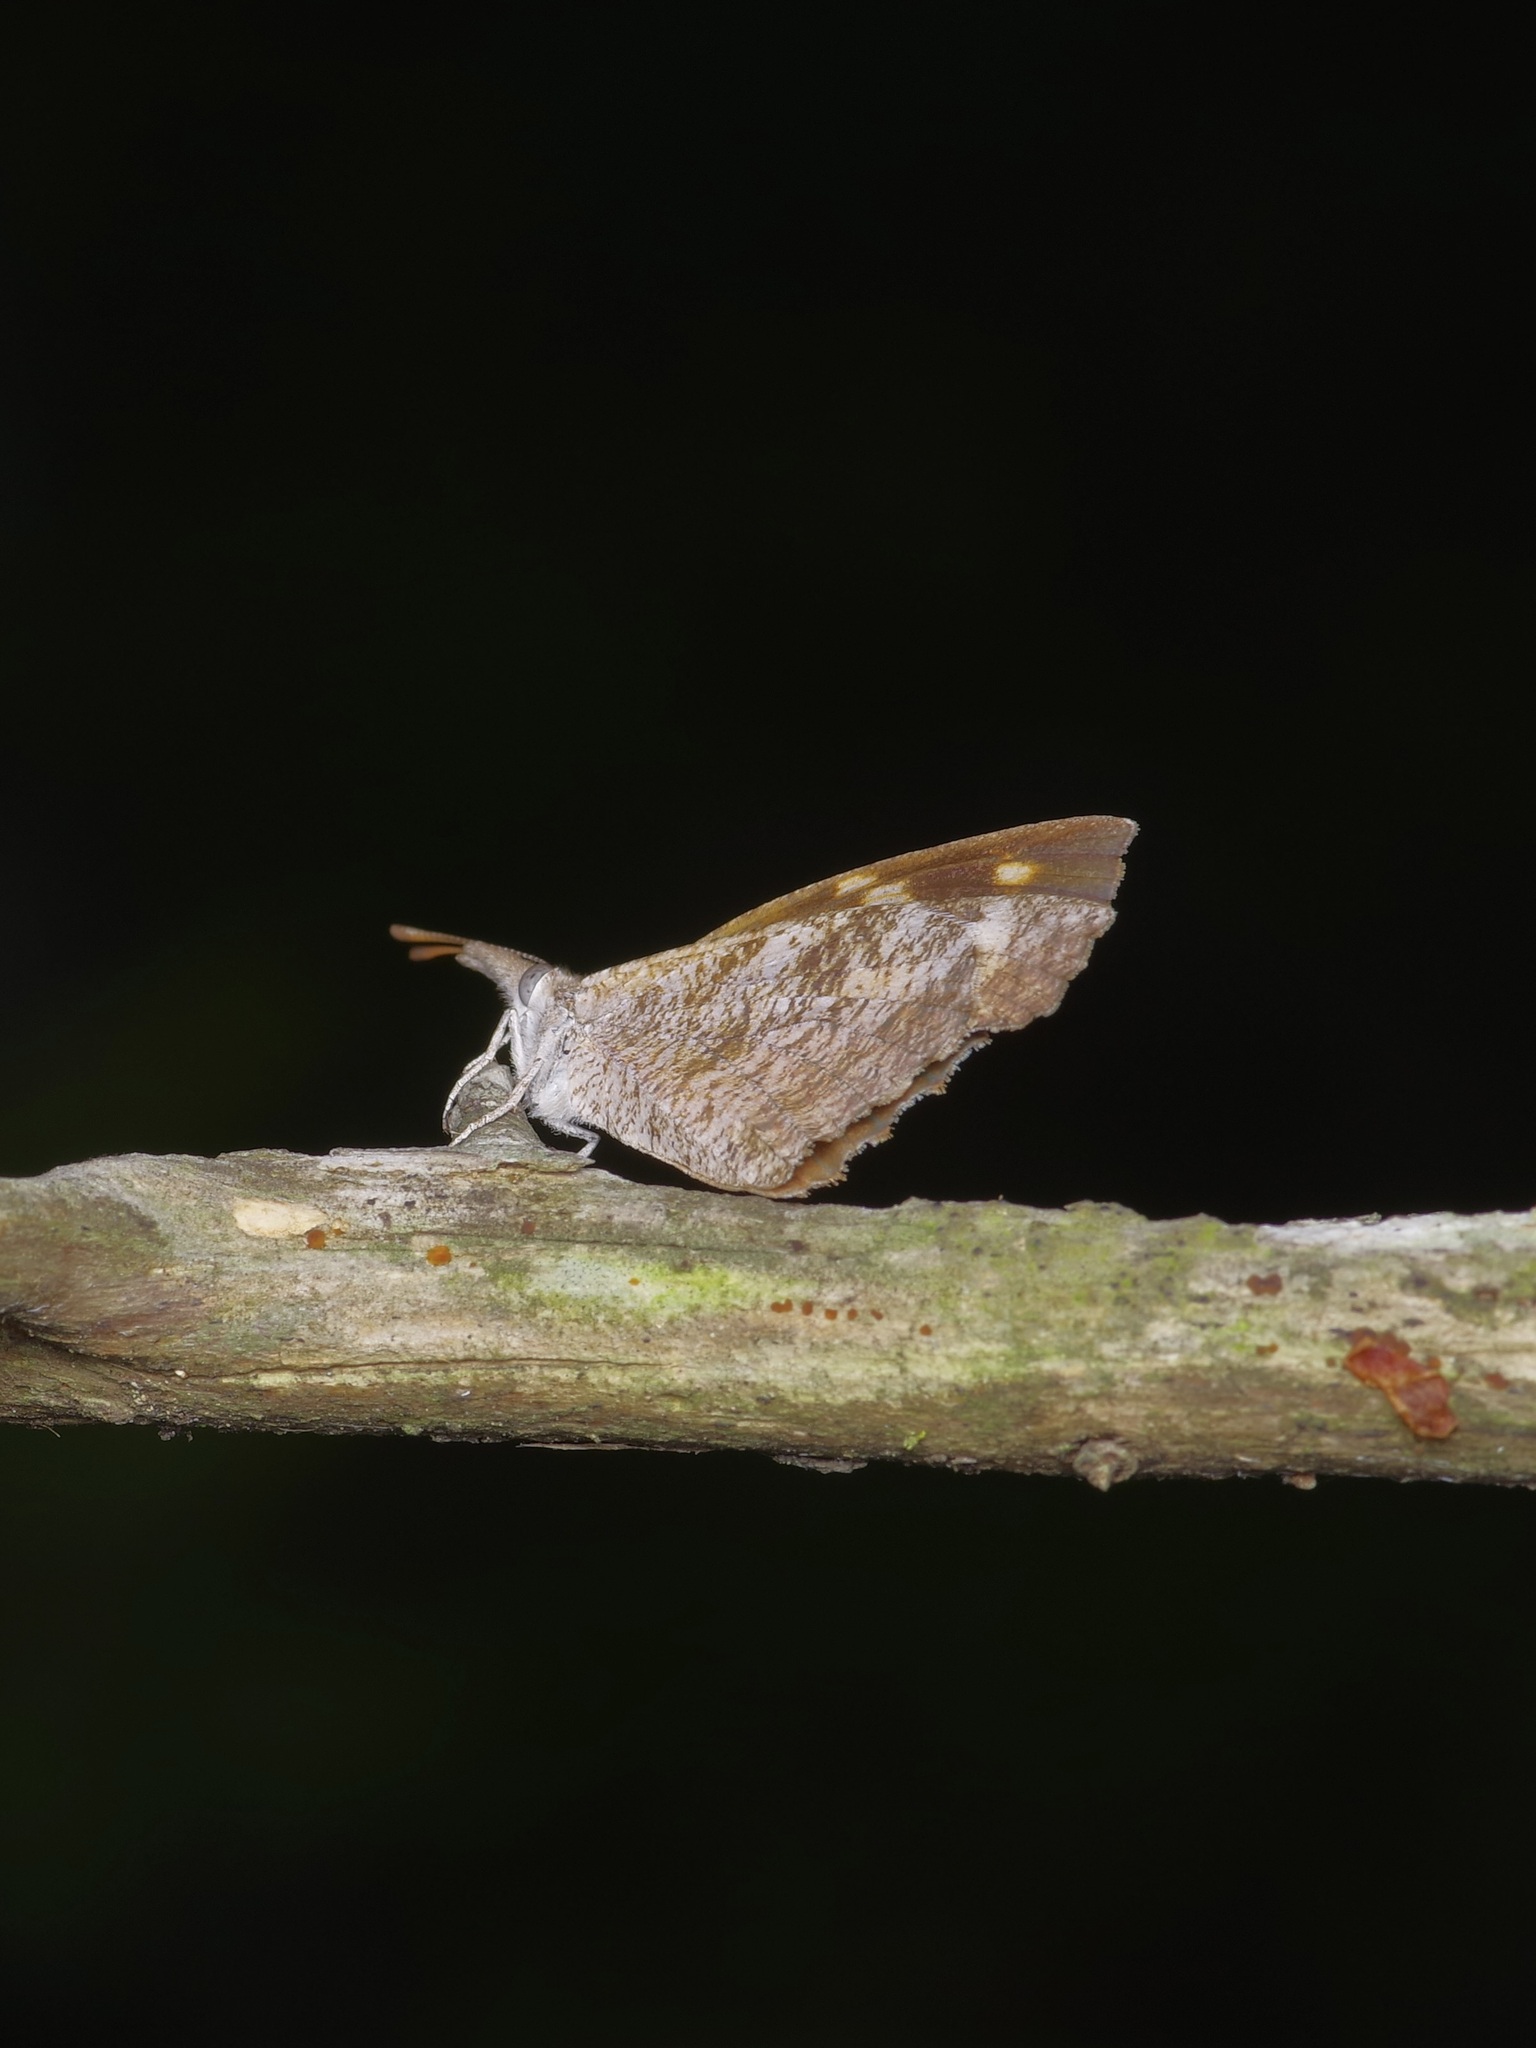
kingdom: Animalia
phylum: Arthropoda
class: Insecta
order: Lepidoptera
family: Nymphalidae
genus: Libytheana
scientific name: Libytheana carinenta
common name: American snout
